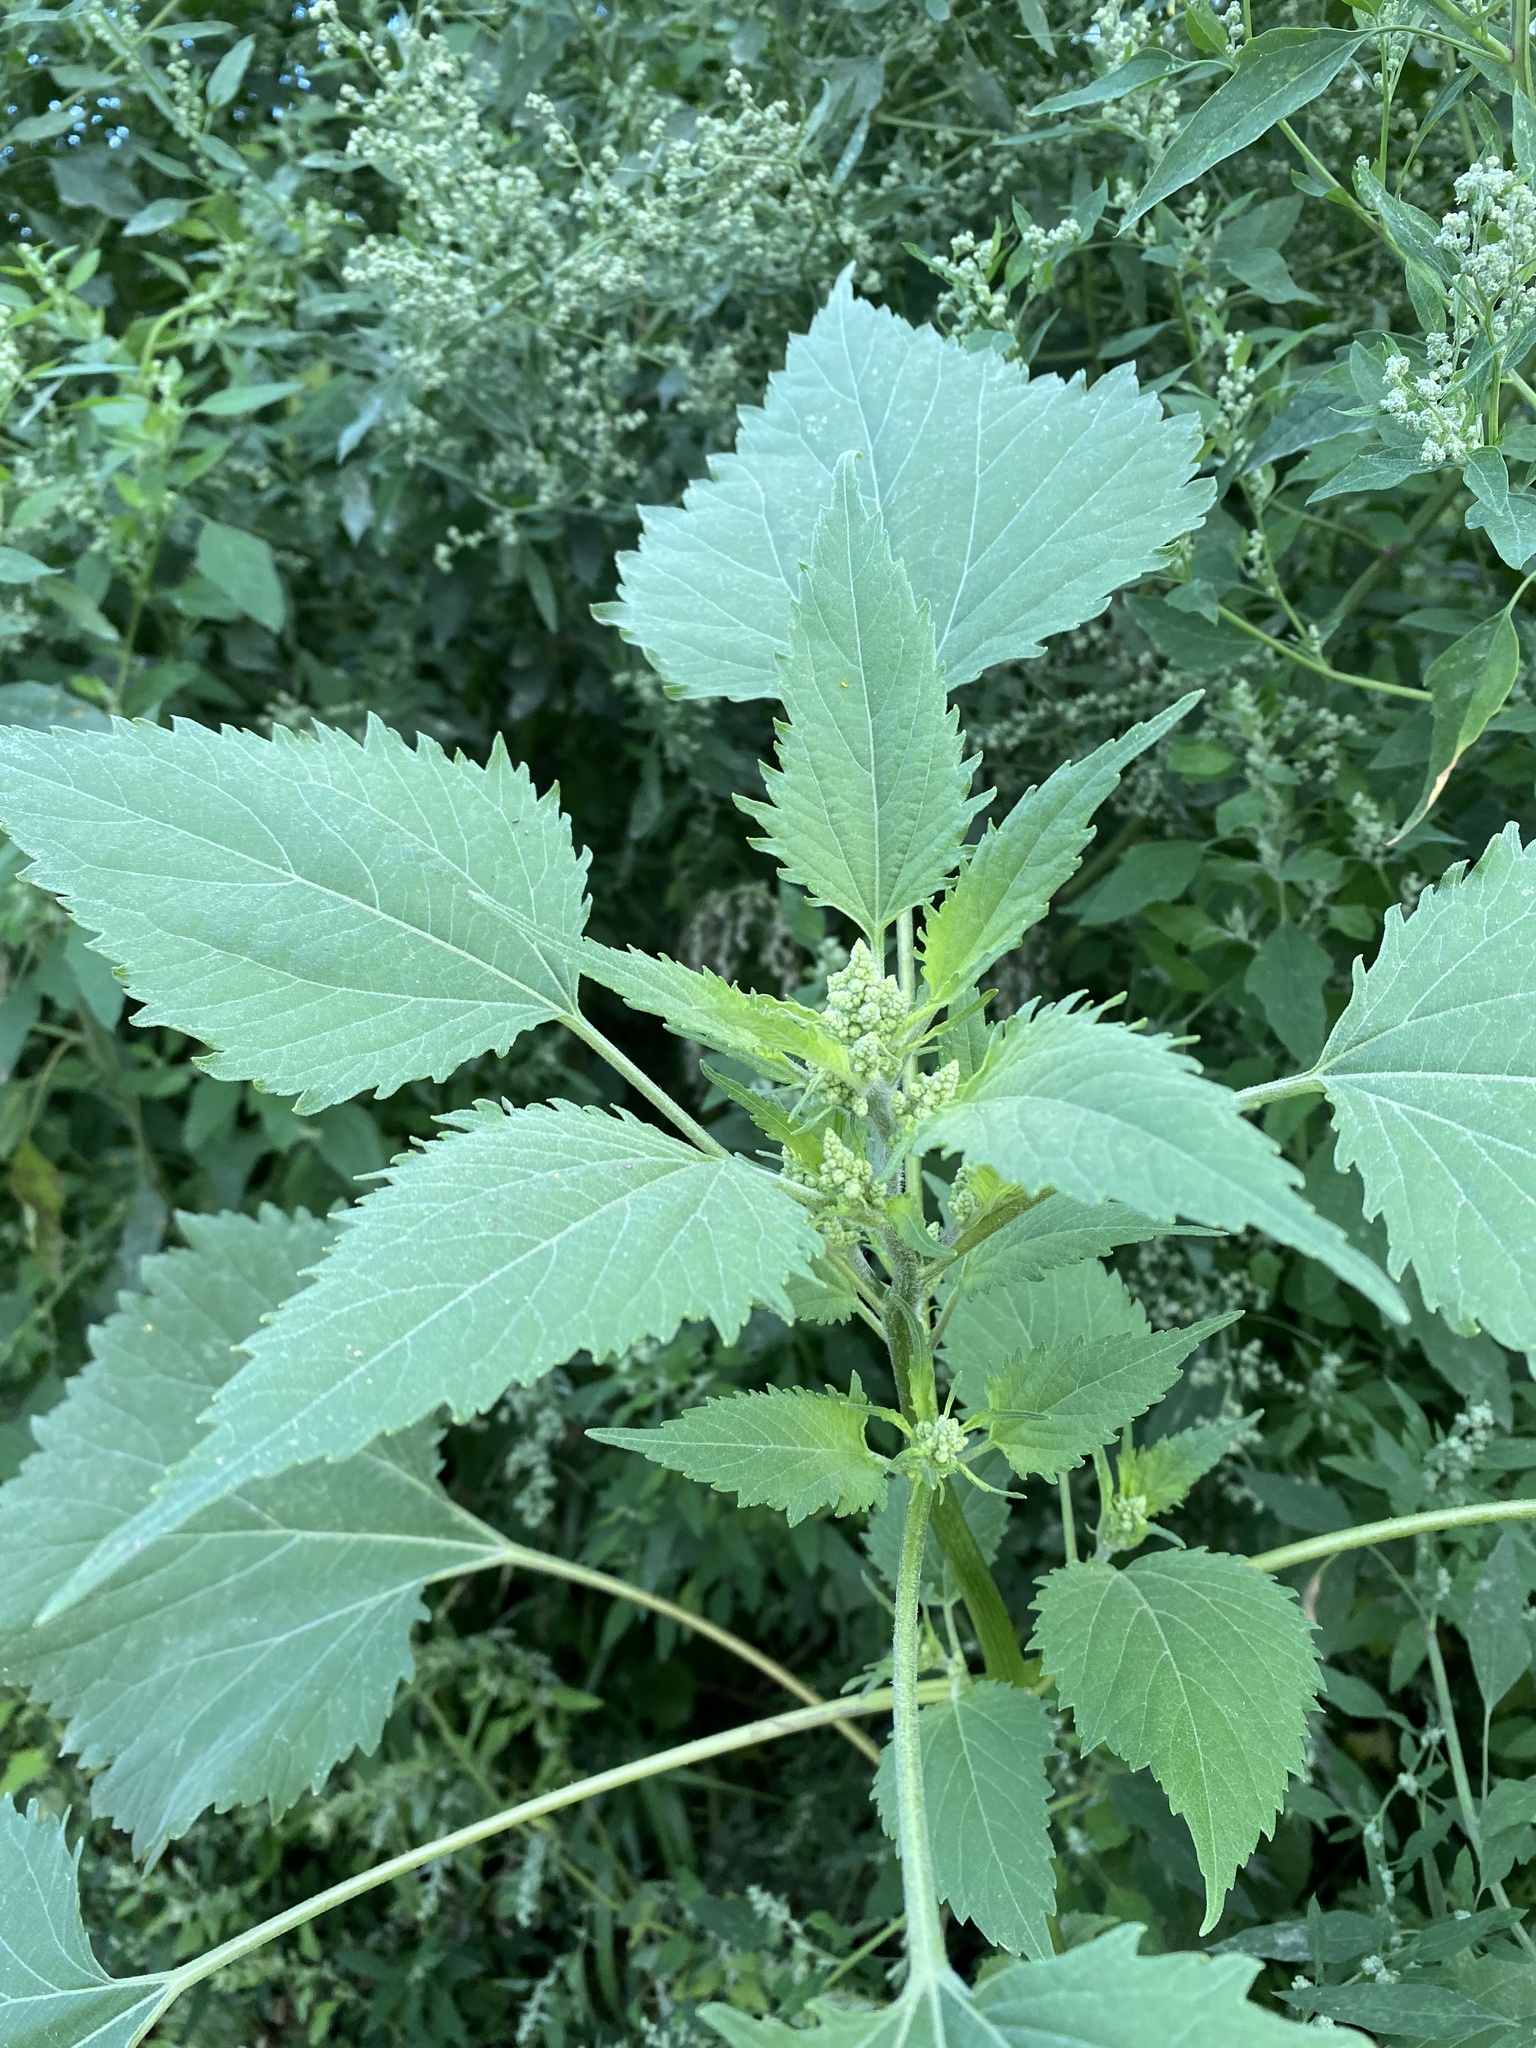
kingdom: Plantae
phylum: Tracheophyta
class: Magnoliopsida
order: Asterales
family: Asteraceae
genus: Cyclachaena
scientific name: Cyclachaena xanthiifolia
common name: Giant sumpweed
